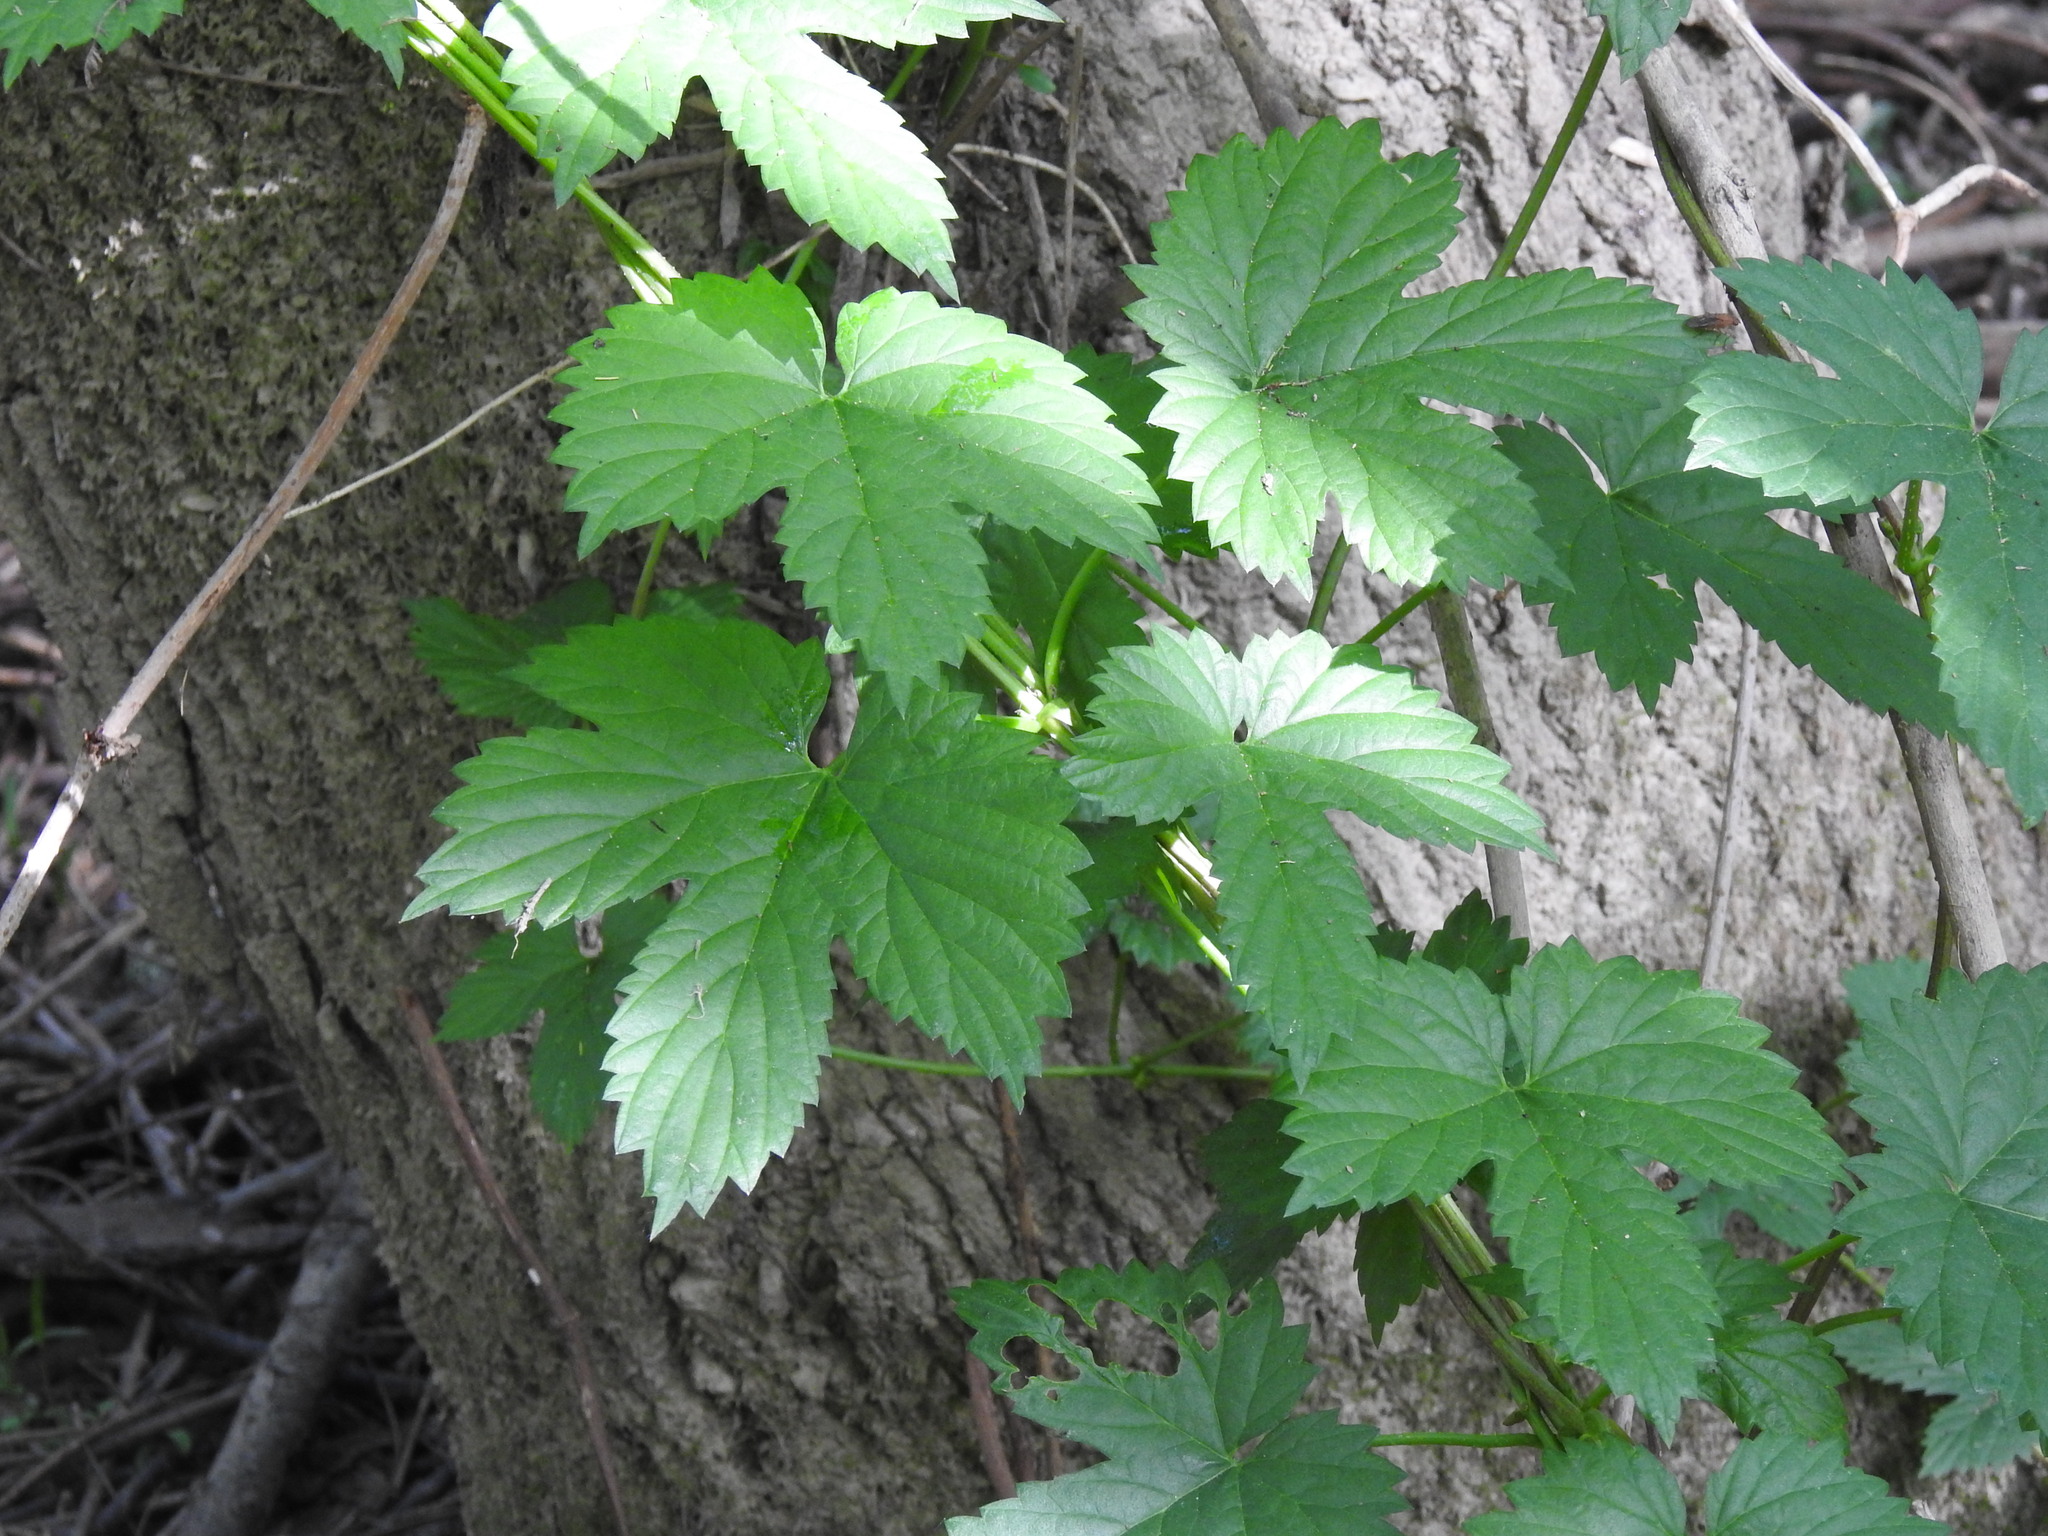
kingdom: Plantae
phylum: Tracheophyta
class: Magnoliopsida
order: Rosales
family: Cannabaceae
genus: Humulus
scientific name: Humulus lupulus
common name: Hop
